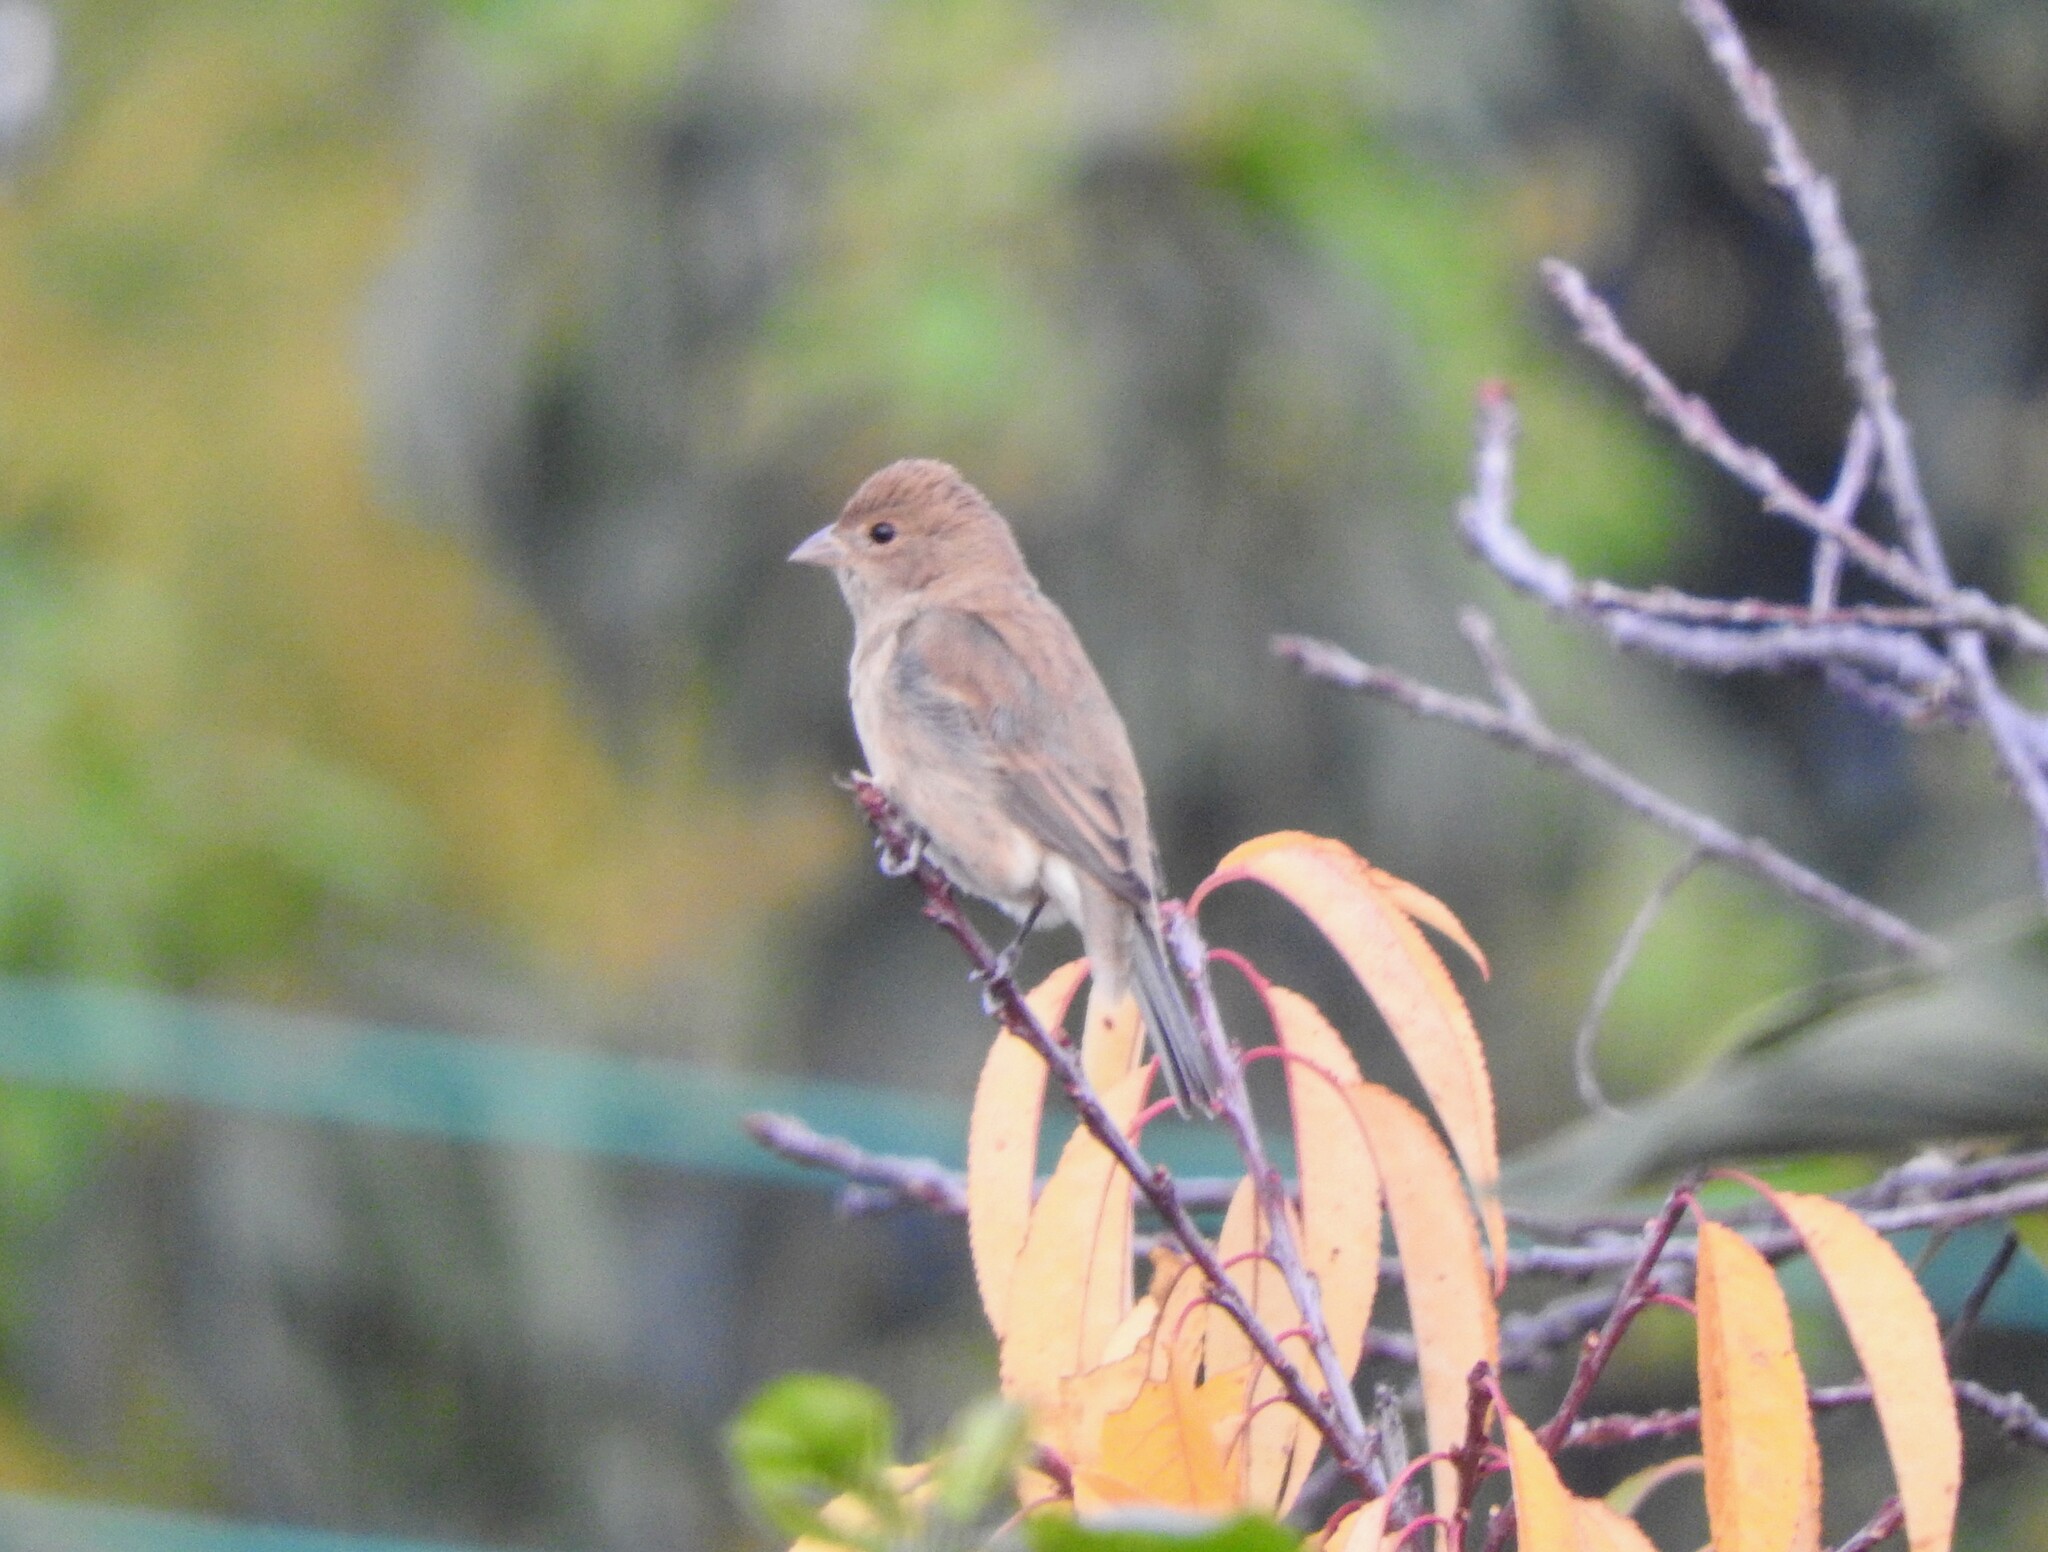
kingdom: Animalia
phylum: Chordata
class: Aves
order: Passeriformes
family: Cardinalidae
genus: Passerina
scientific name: Passerina cyanea
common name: Indigo bunting
